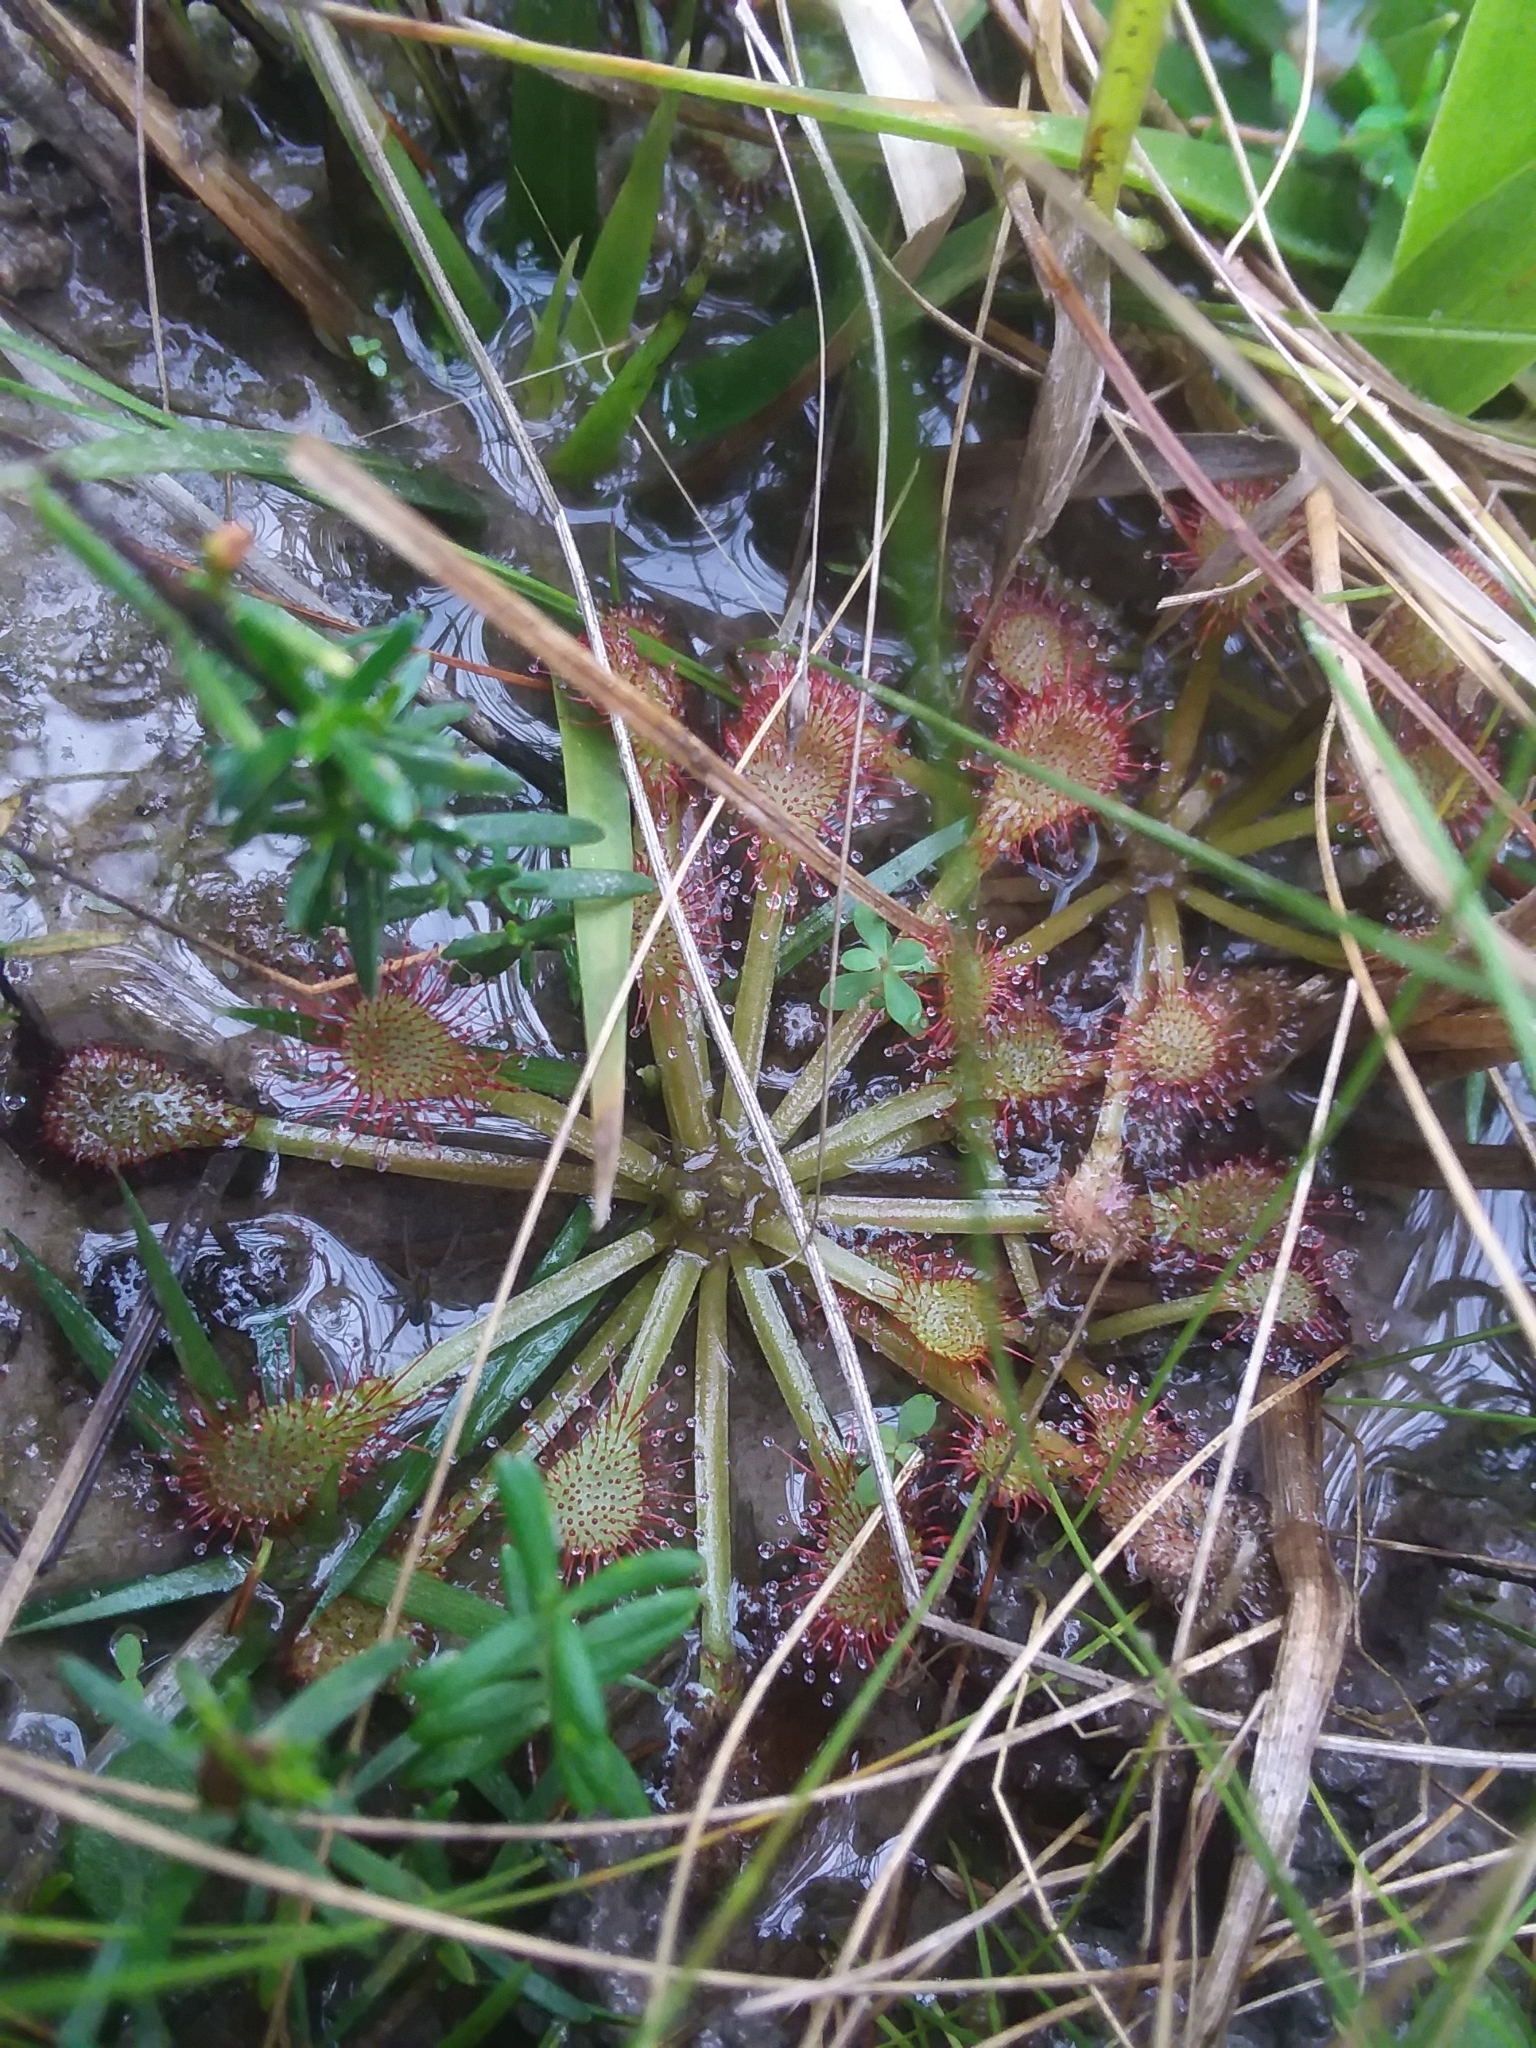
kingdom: Plantae
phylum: Tracheophyta
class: Magnoliopsida
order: Caryophyllales
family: Droseraceae
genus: Drosera
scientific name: Drosera capillaris
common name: Pink sundew
